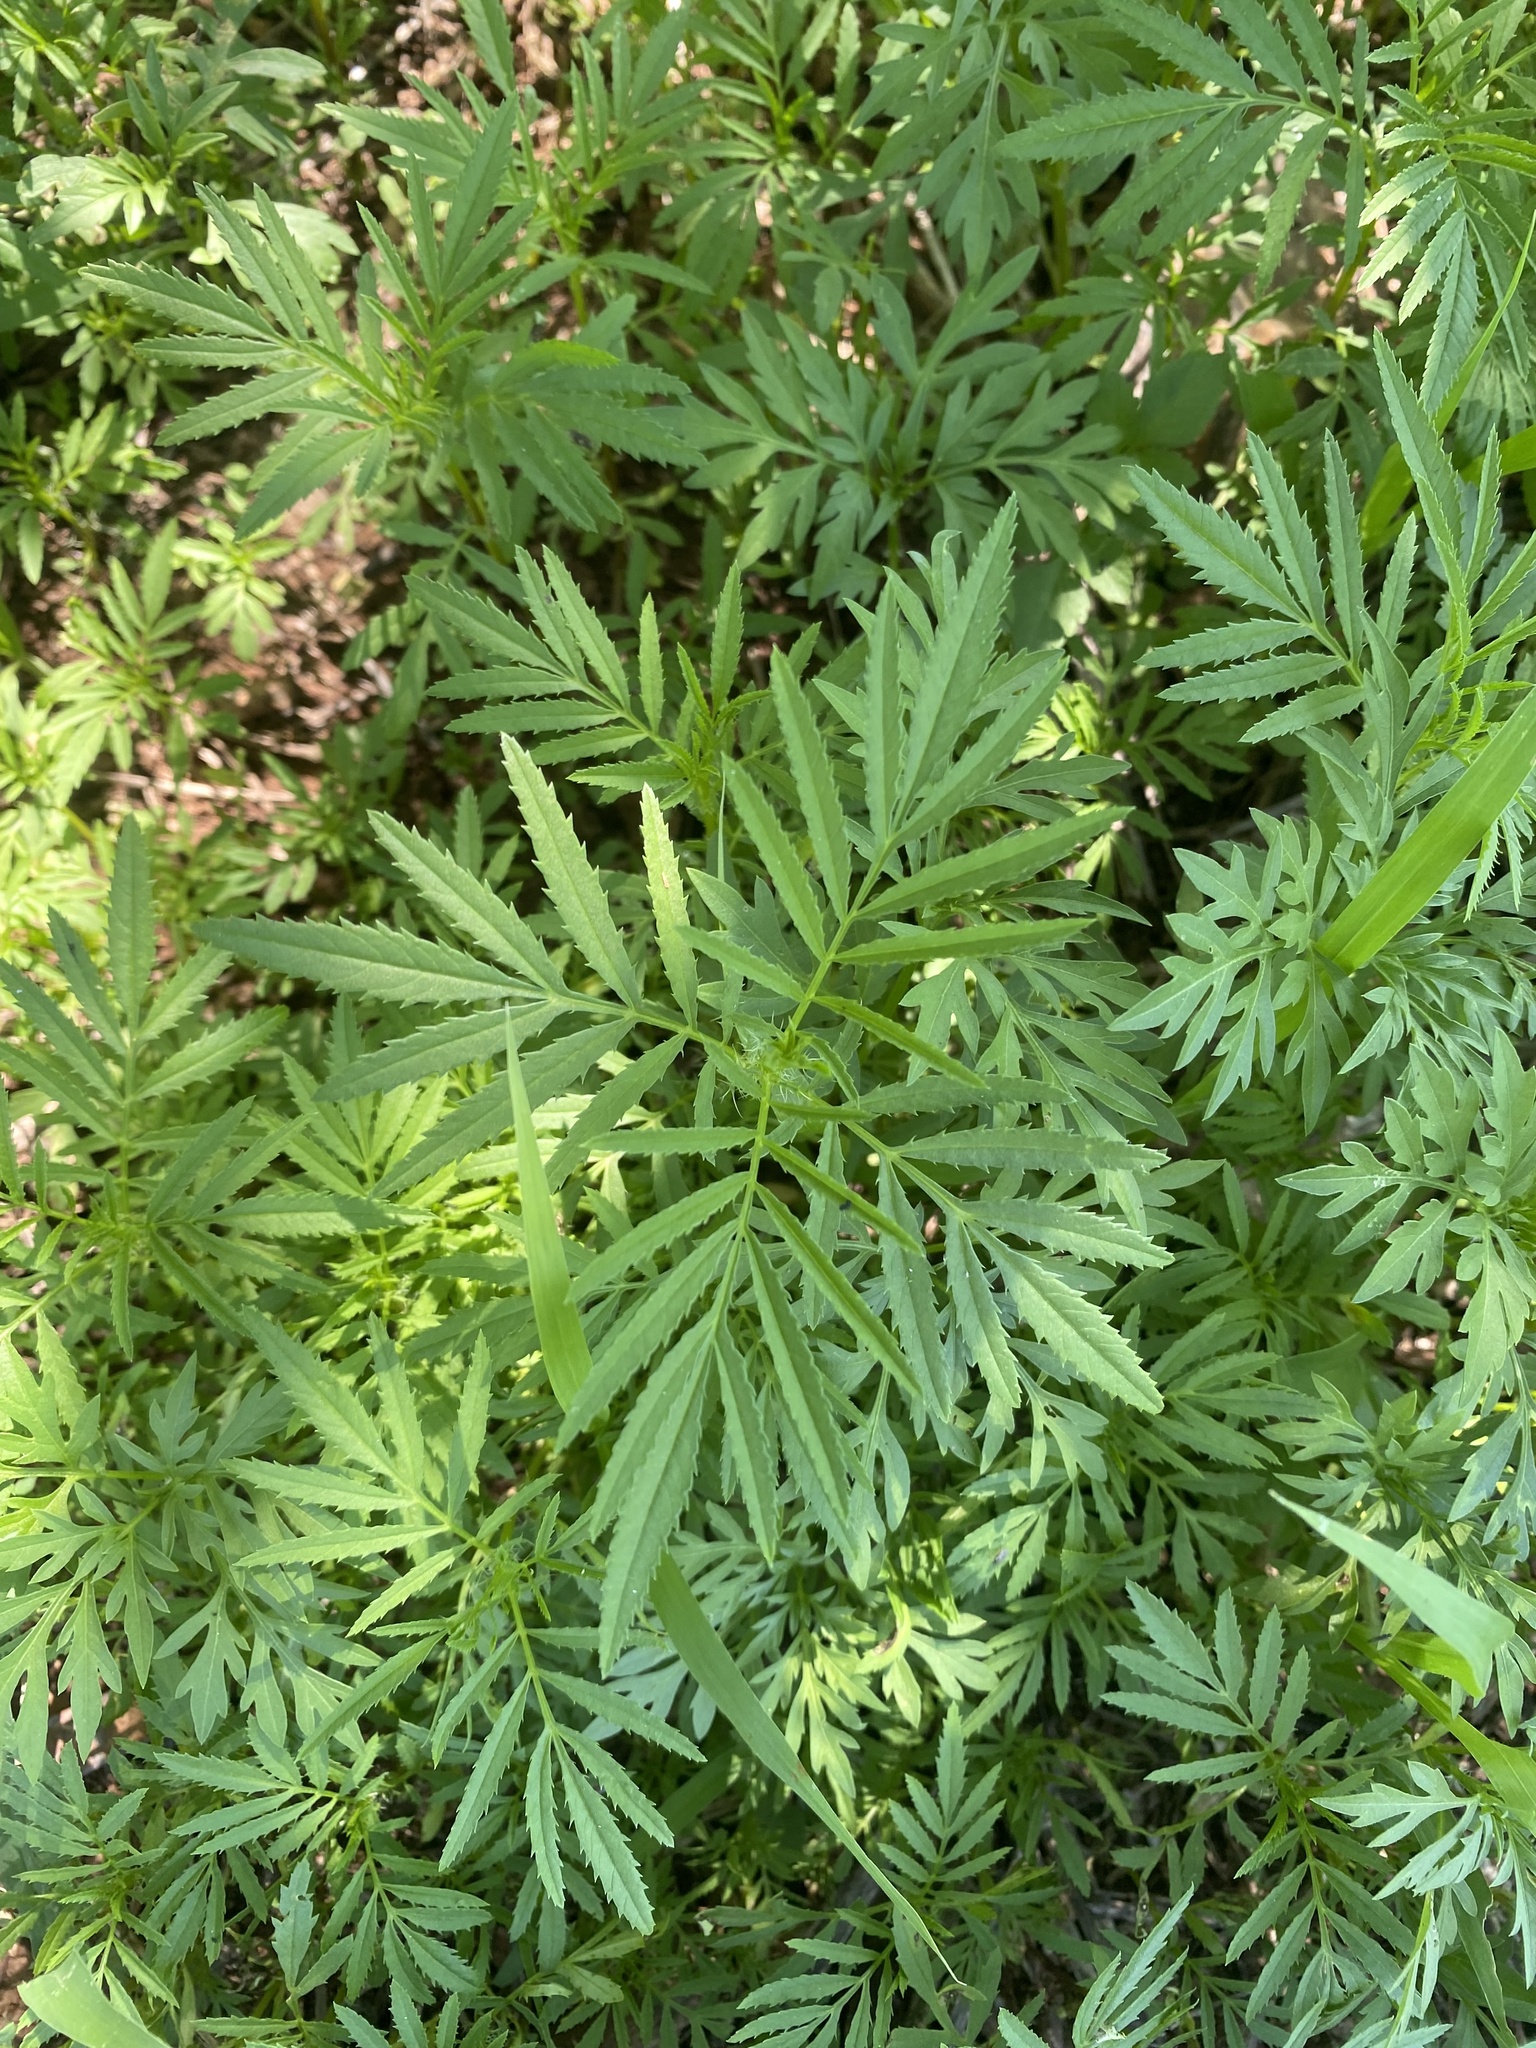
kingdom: Plantae
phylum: Tracheophyta
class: Magnoliopsida
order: Asterales
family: Asteraceae
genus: Tagetes
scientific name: Tagetes minuta
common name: Muster john henry
